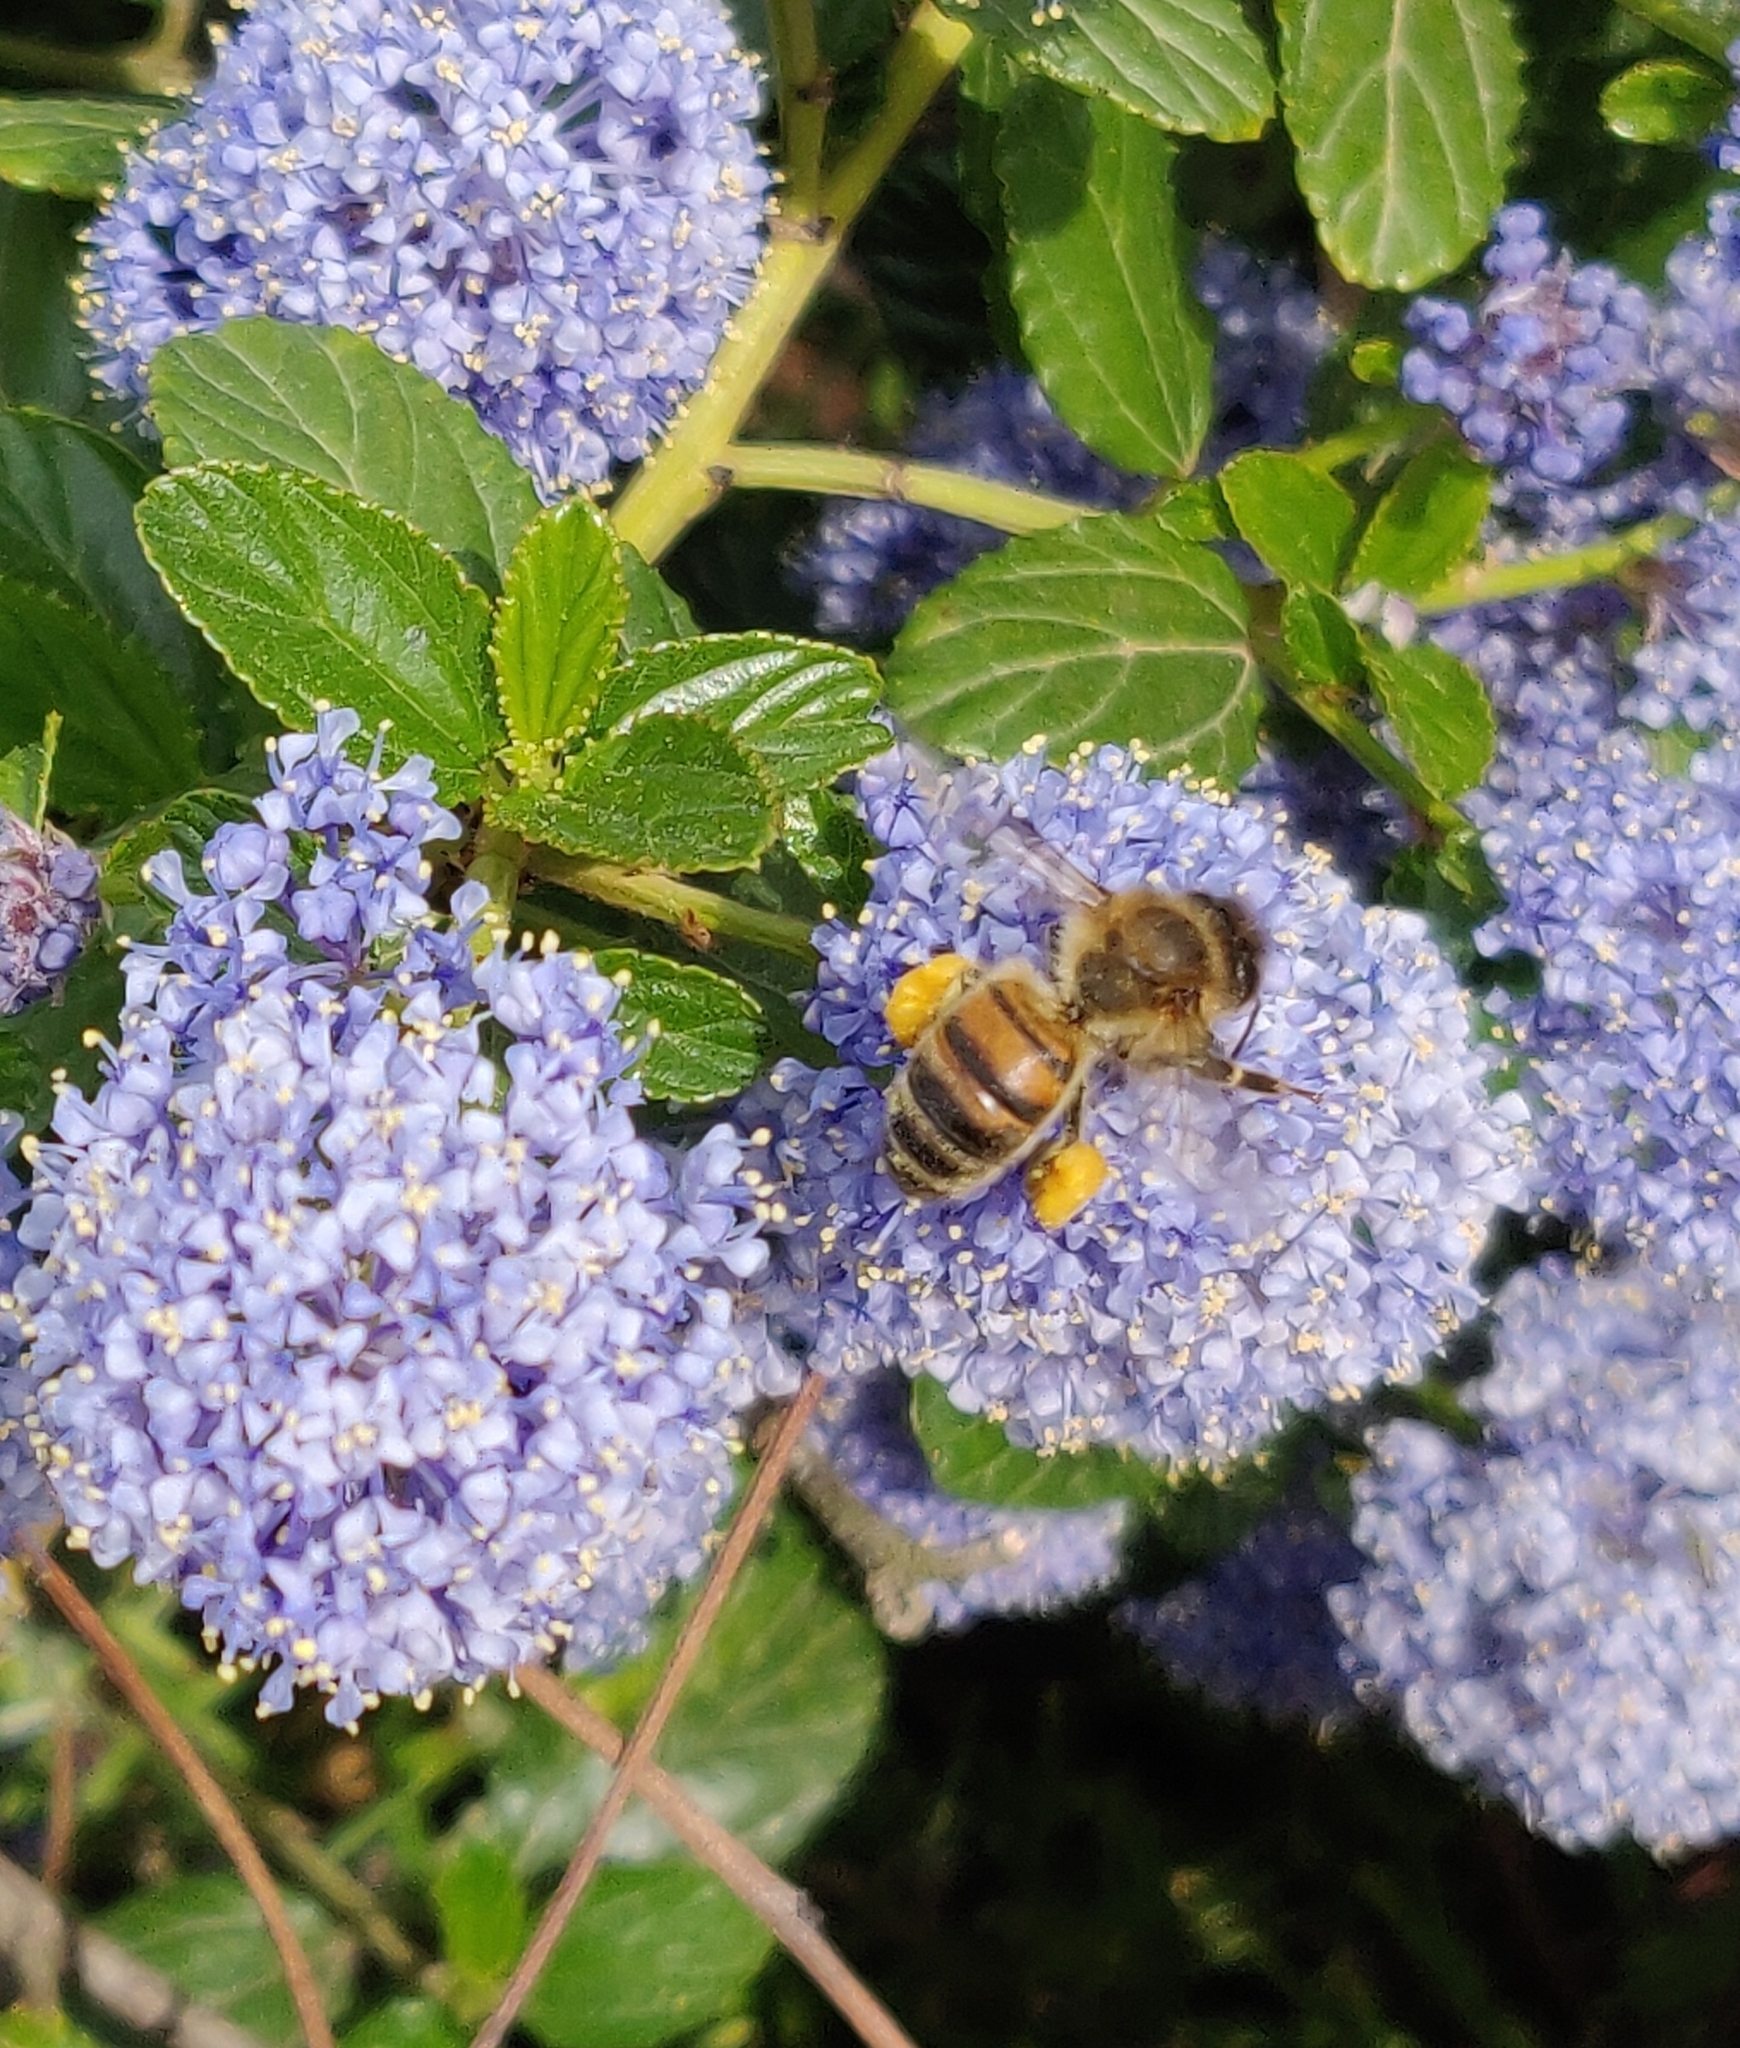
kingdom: Animalia
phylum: Arthropoda
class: Insecta
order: Hymenoptera
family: Apidae
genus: Apis
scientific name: Apis mellifera
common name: Honey bee
